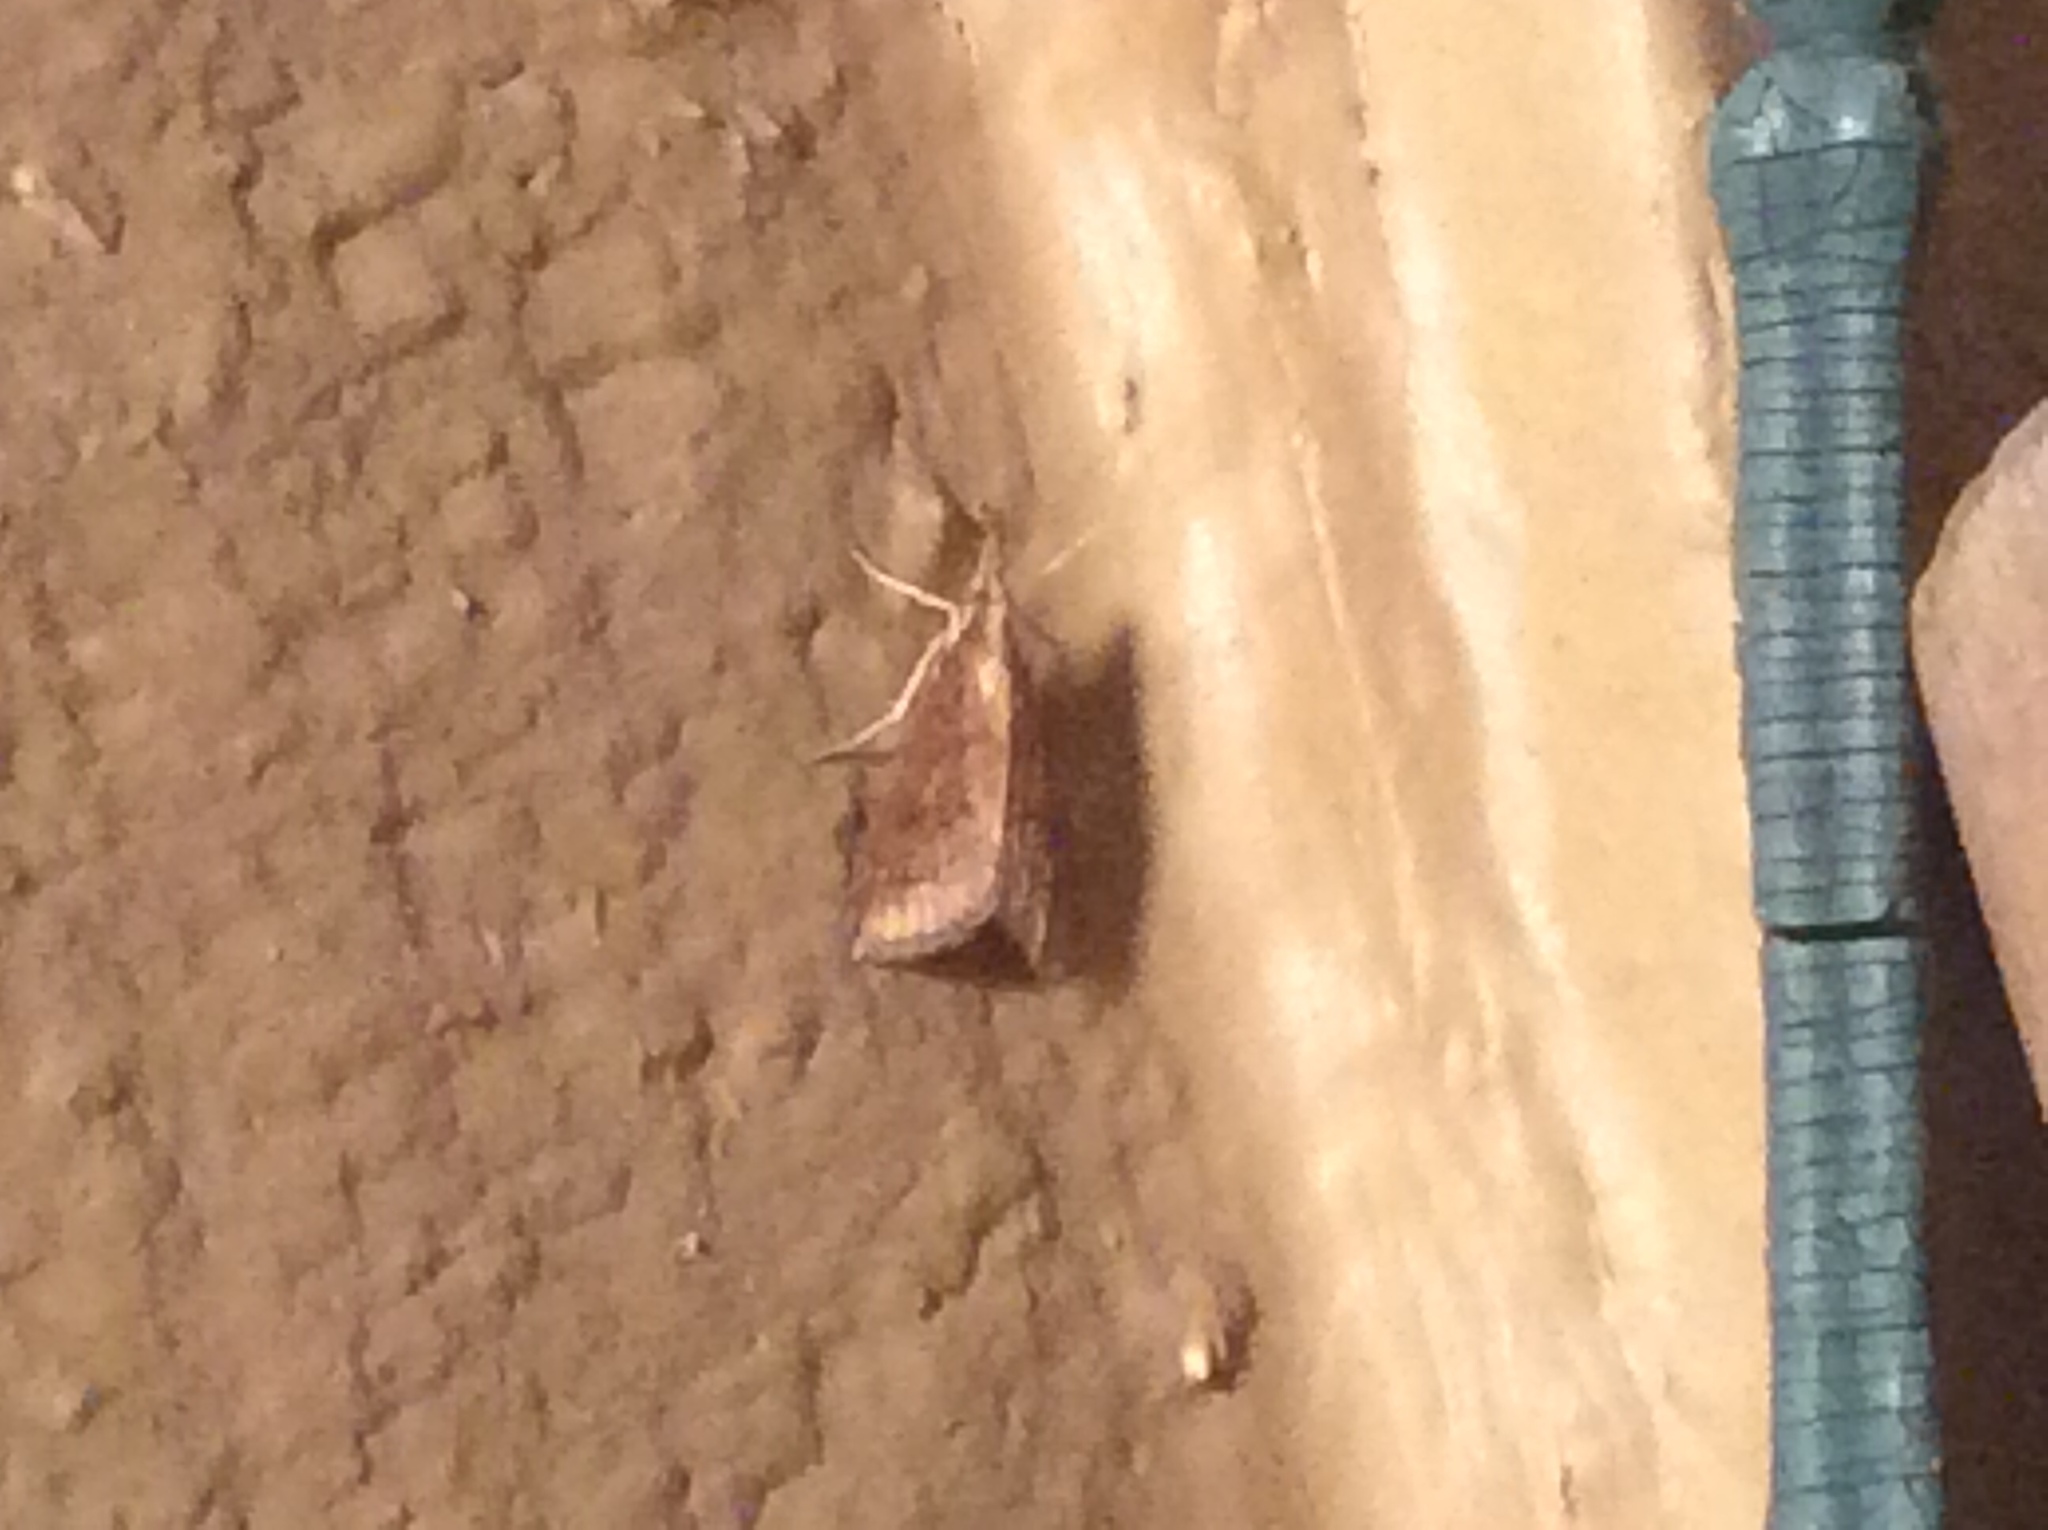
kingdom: Animalia
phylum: Arthropoda
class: Insecta
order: Lepidoptera
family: Crambidae
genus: Udea
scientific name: Udea rubigalis
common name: Celery leaftier moth
